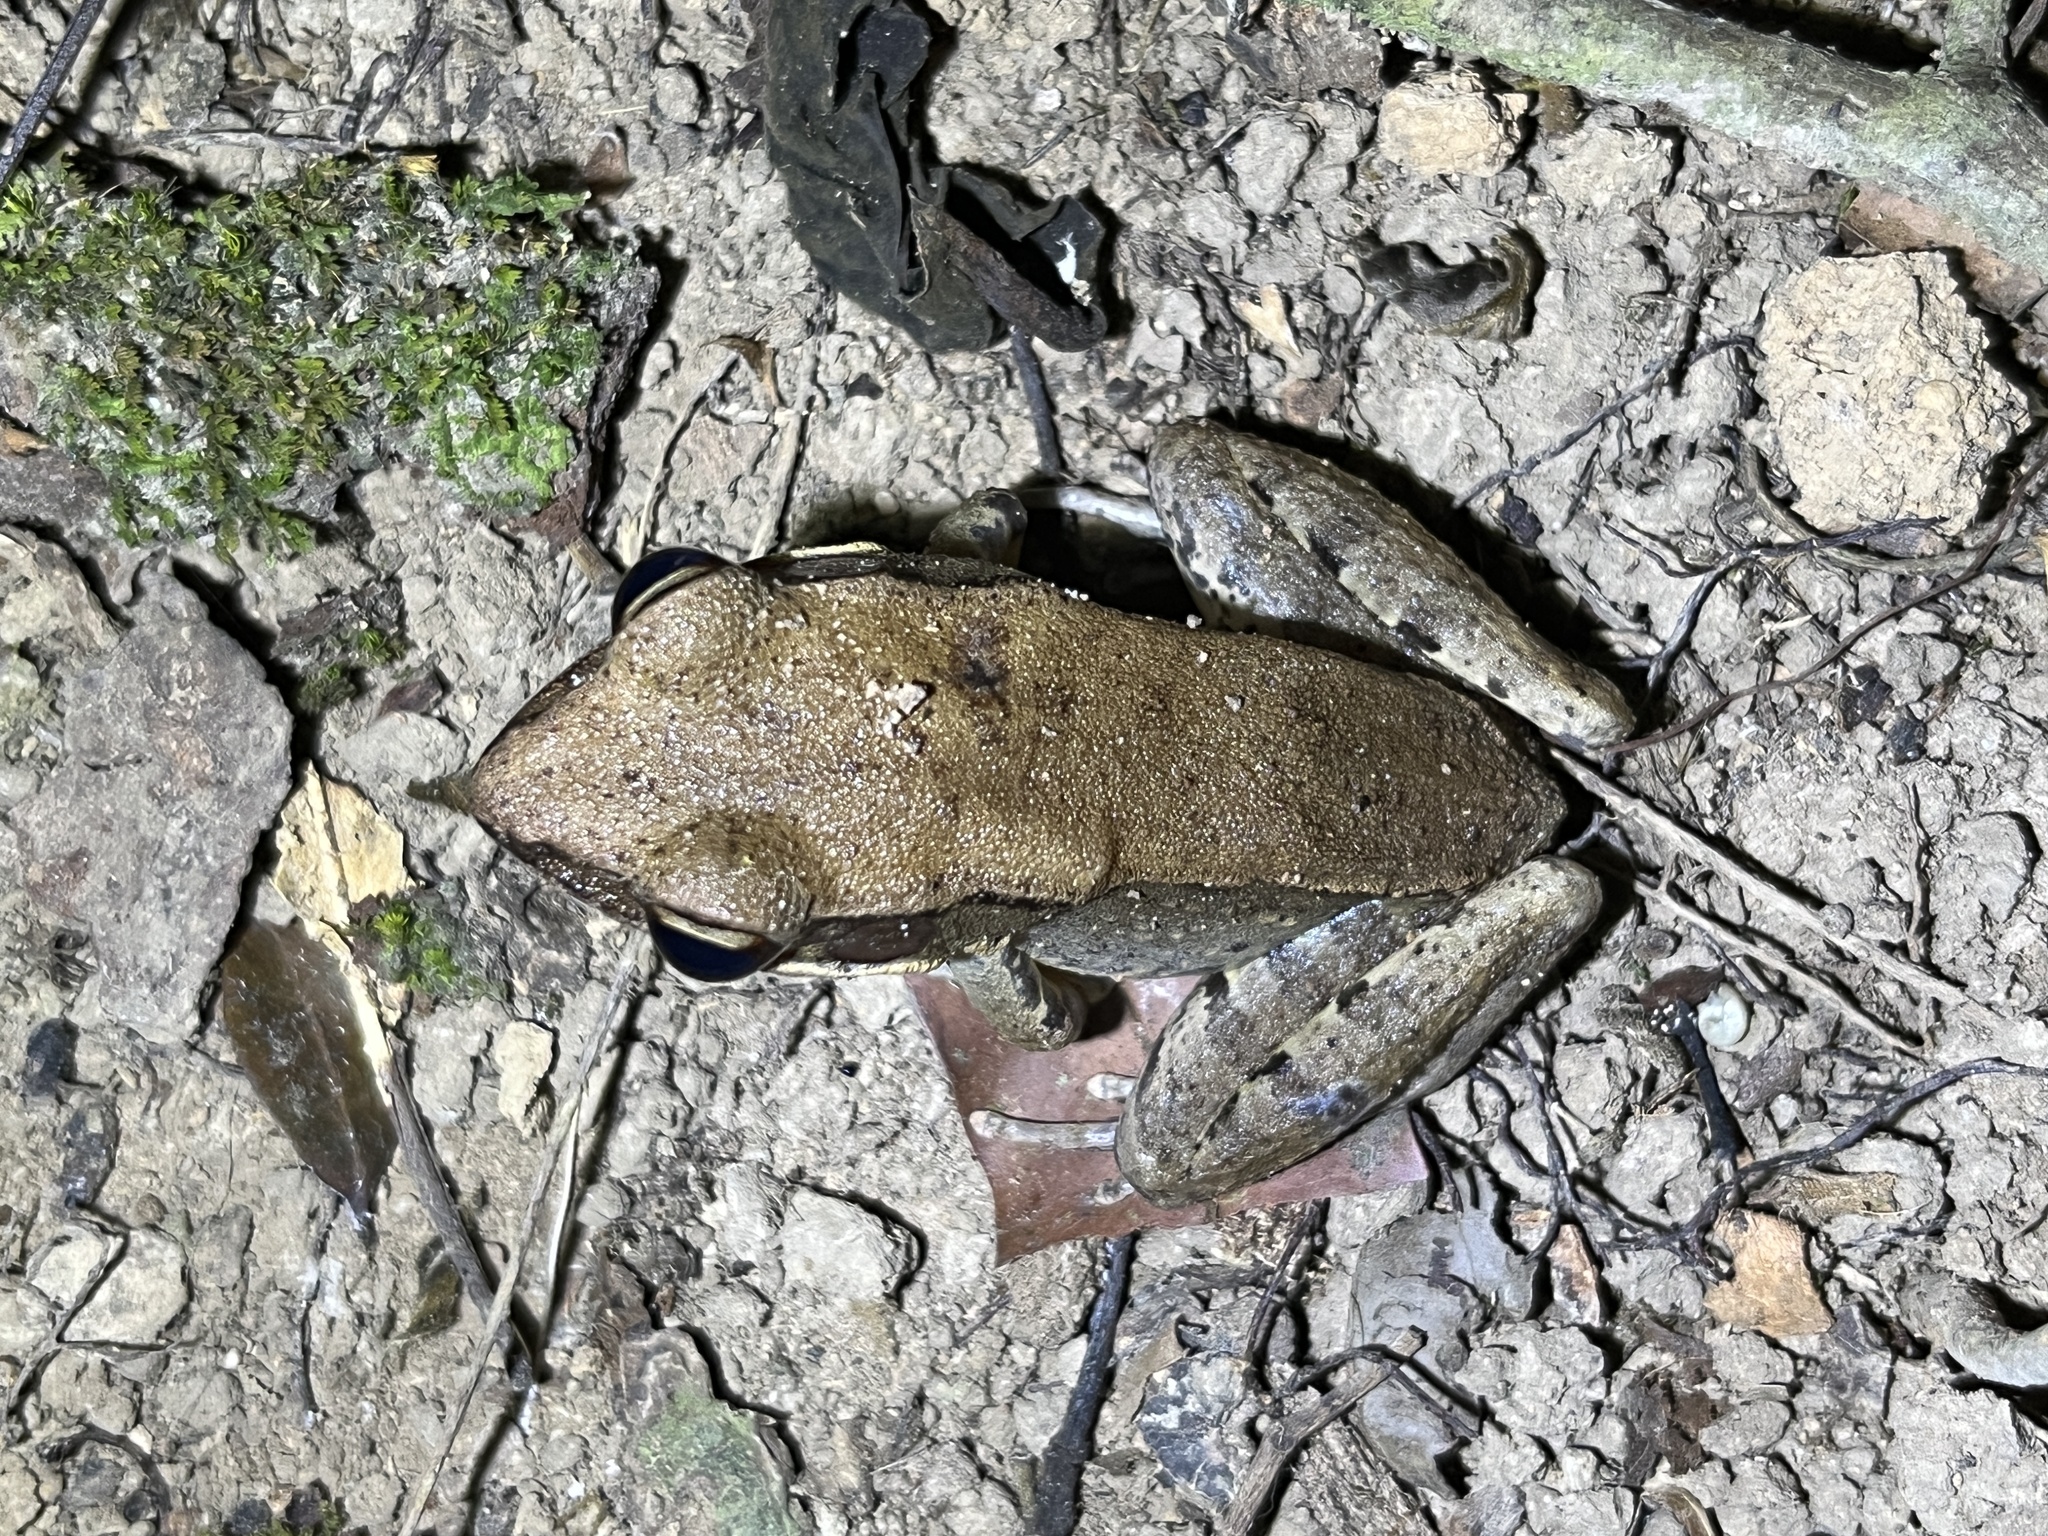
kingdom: Animalia
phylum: Chordata
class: Amphibia
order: Anura
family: Ranidae
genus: Sylvirana
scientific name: Sylvirana mortenseni
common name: Koh chang island frog
